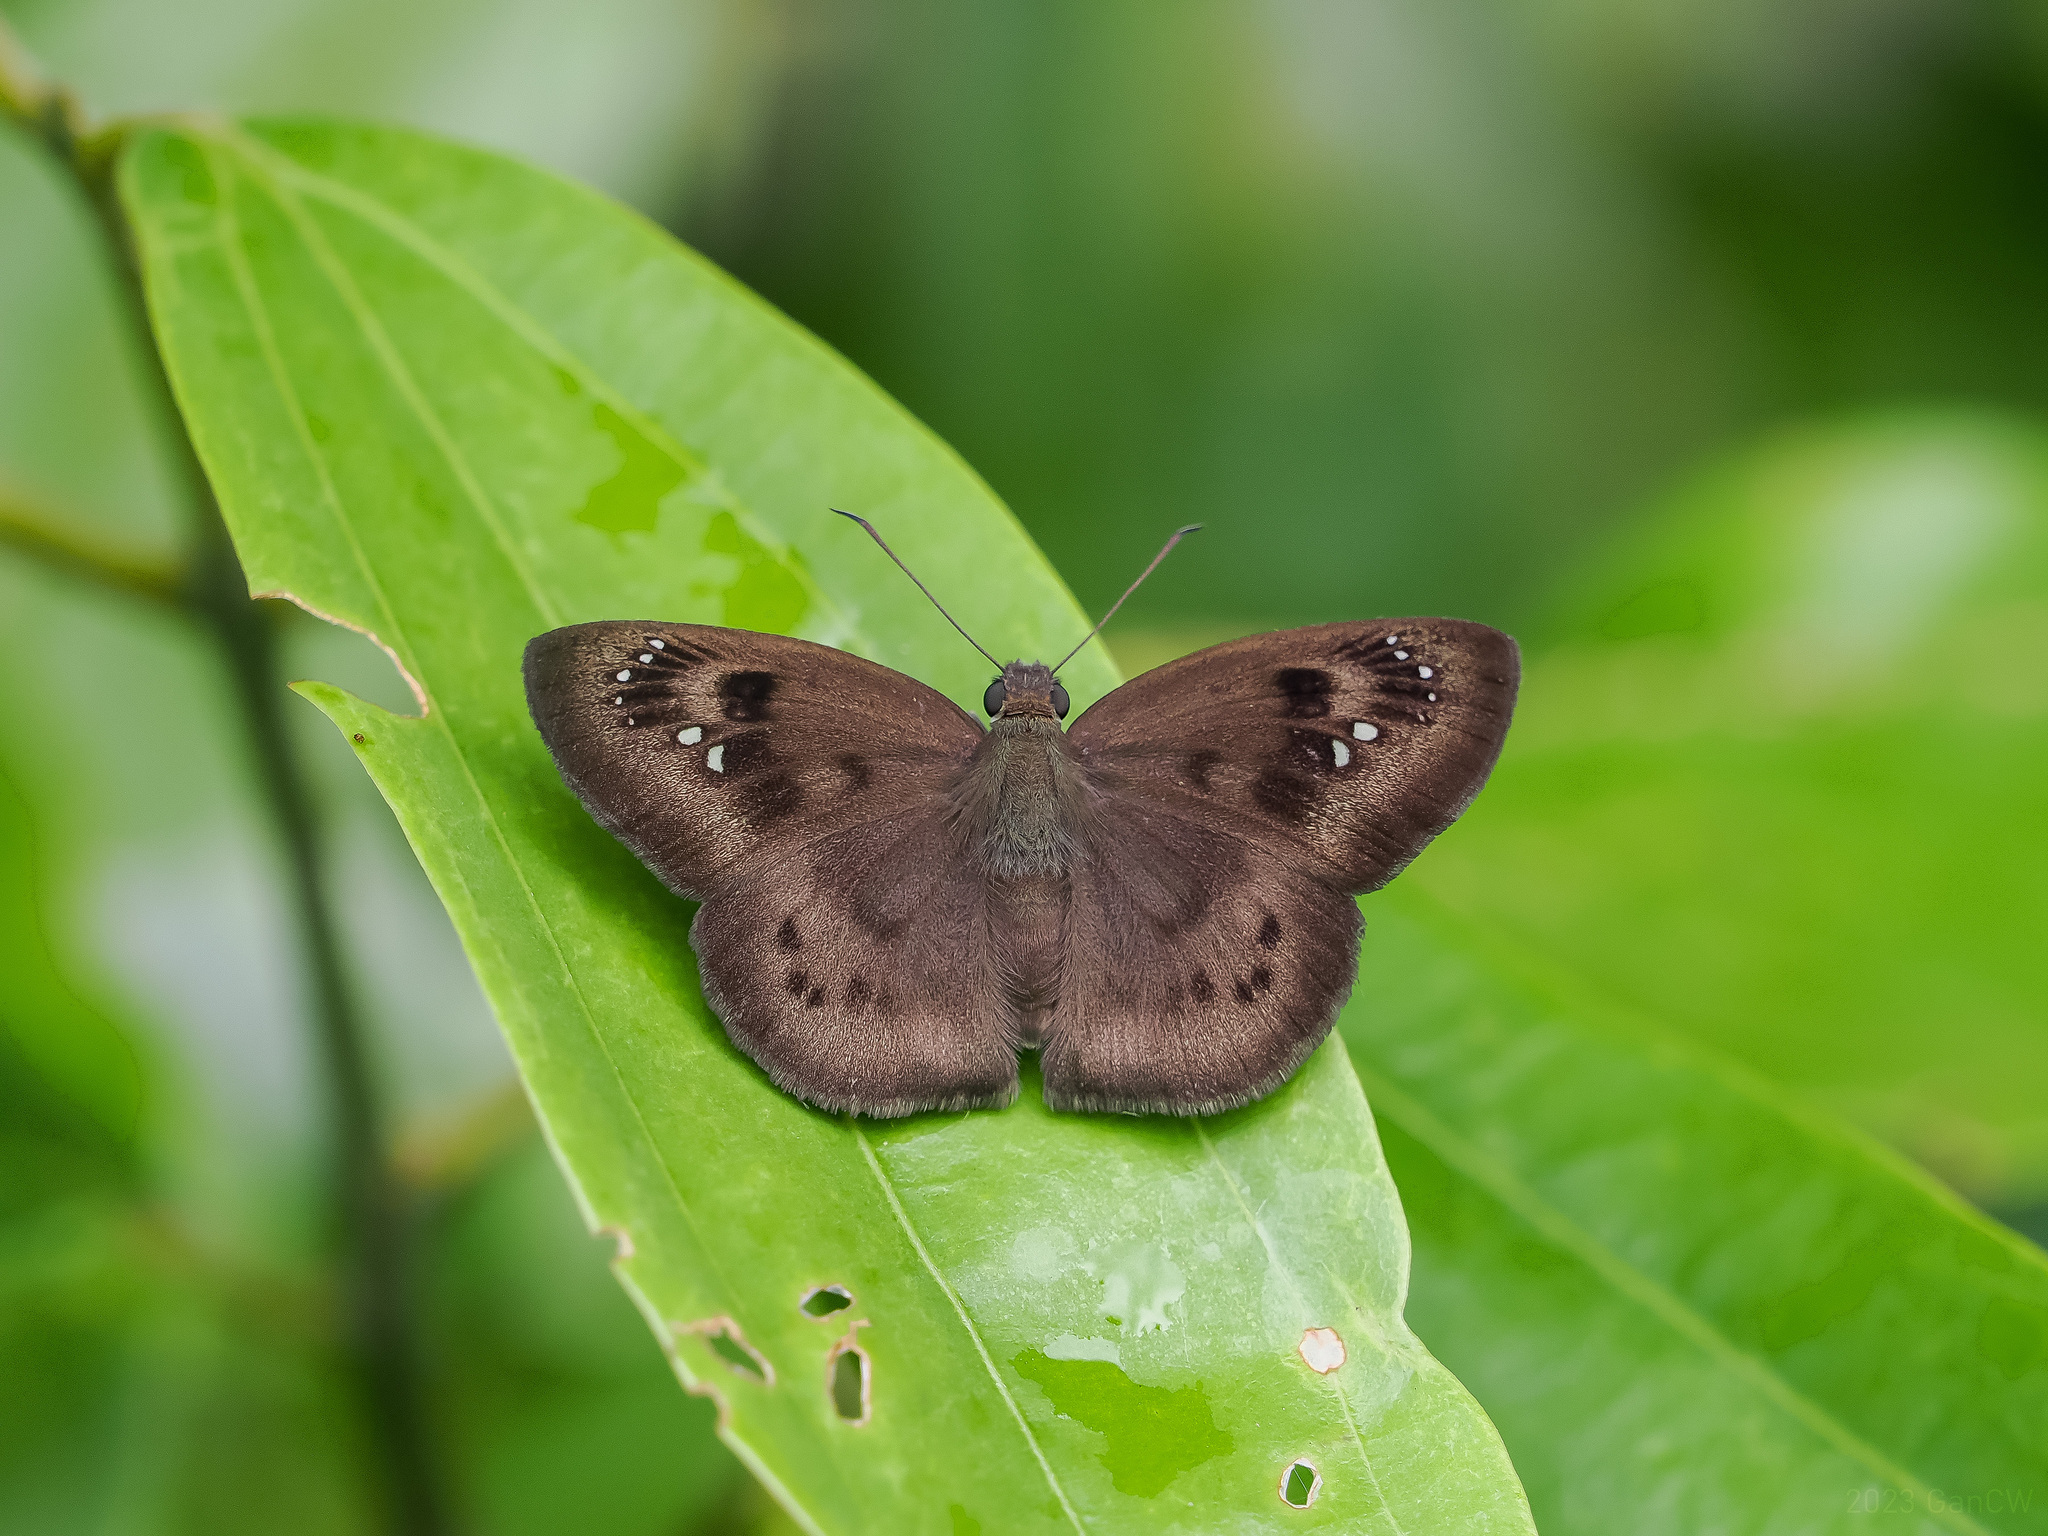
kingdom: Animalia
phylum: Arthropoda
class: Insecta
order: Lepidoptera
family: Hesperiidae
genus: Tagiades
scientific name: Tagiades japetus
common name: Pied flat
